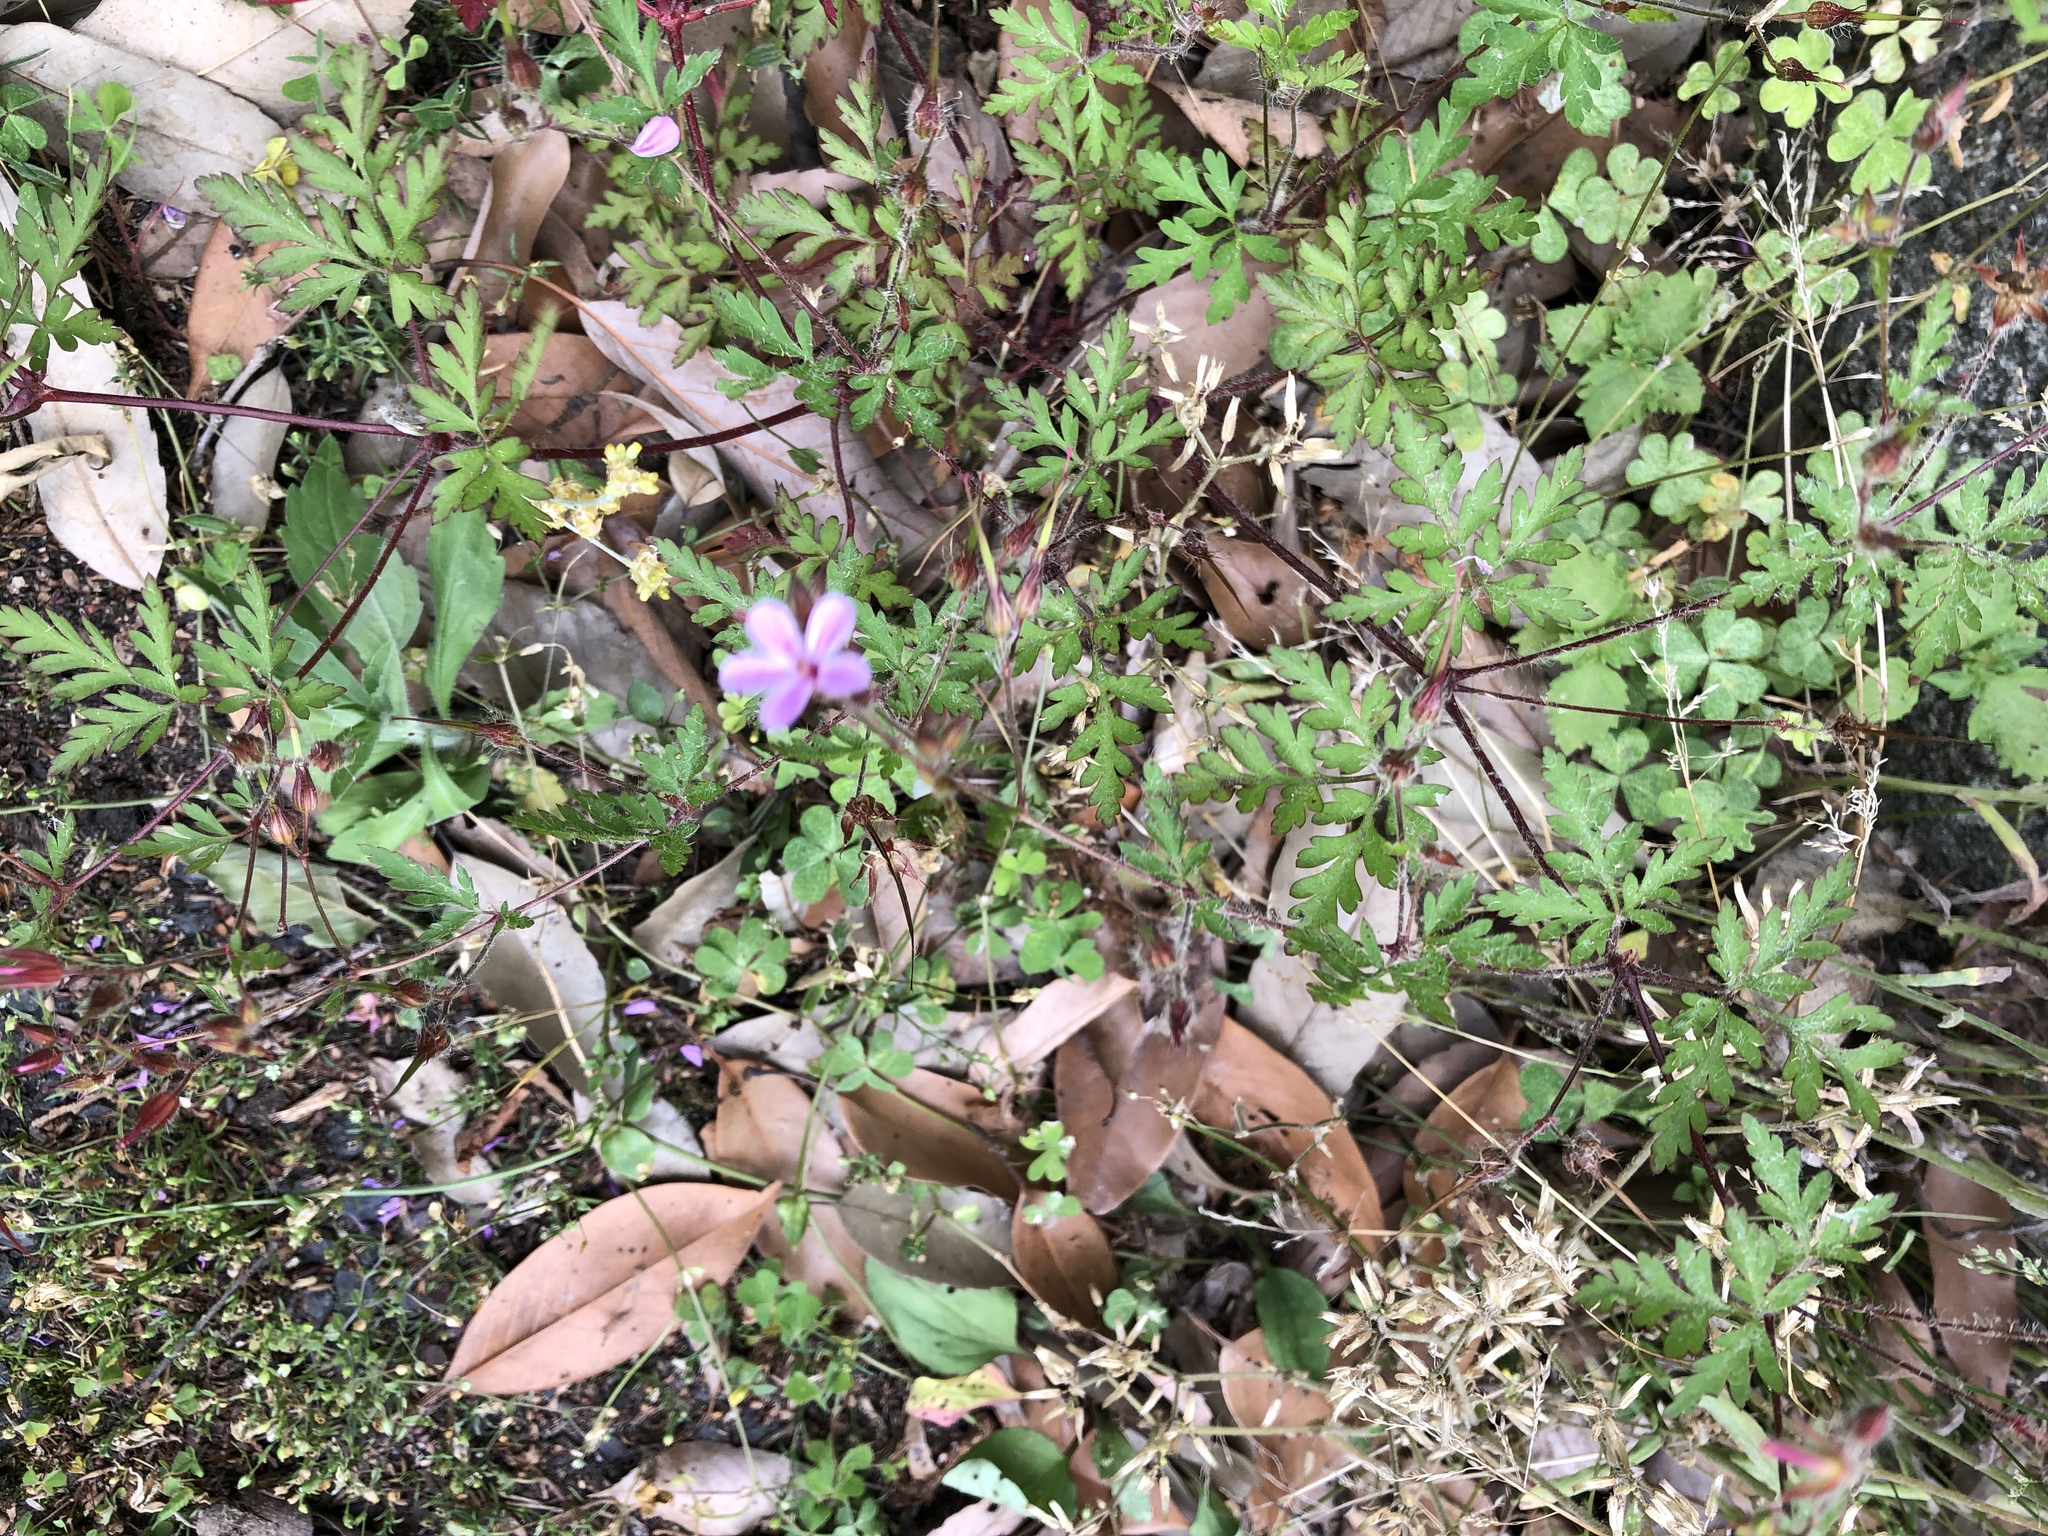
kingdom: Plantae
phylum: Tracheophyta
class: Magnoliopsida
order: Geraniales
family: Geraniaceae
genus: Geranium
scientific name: Geranium robertianum
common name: Herb-robert
